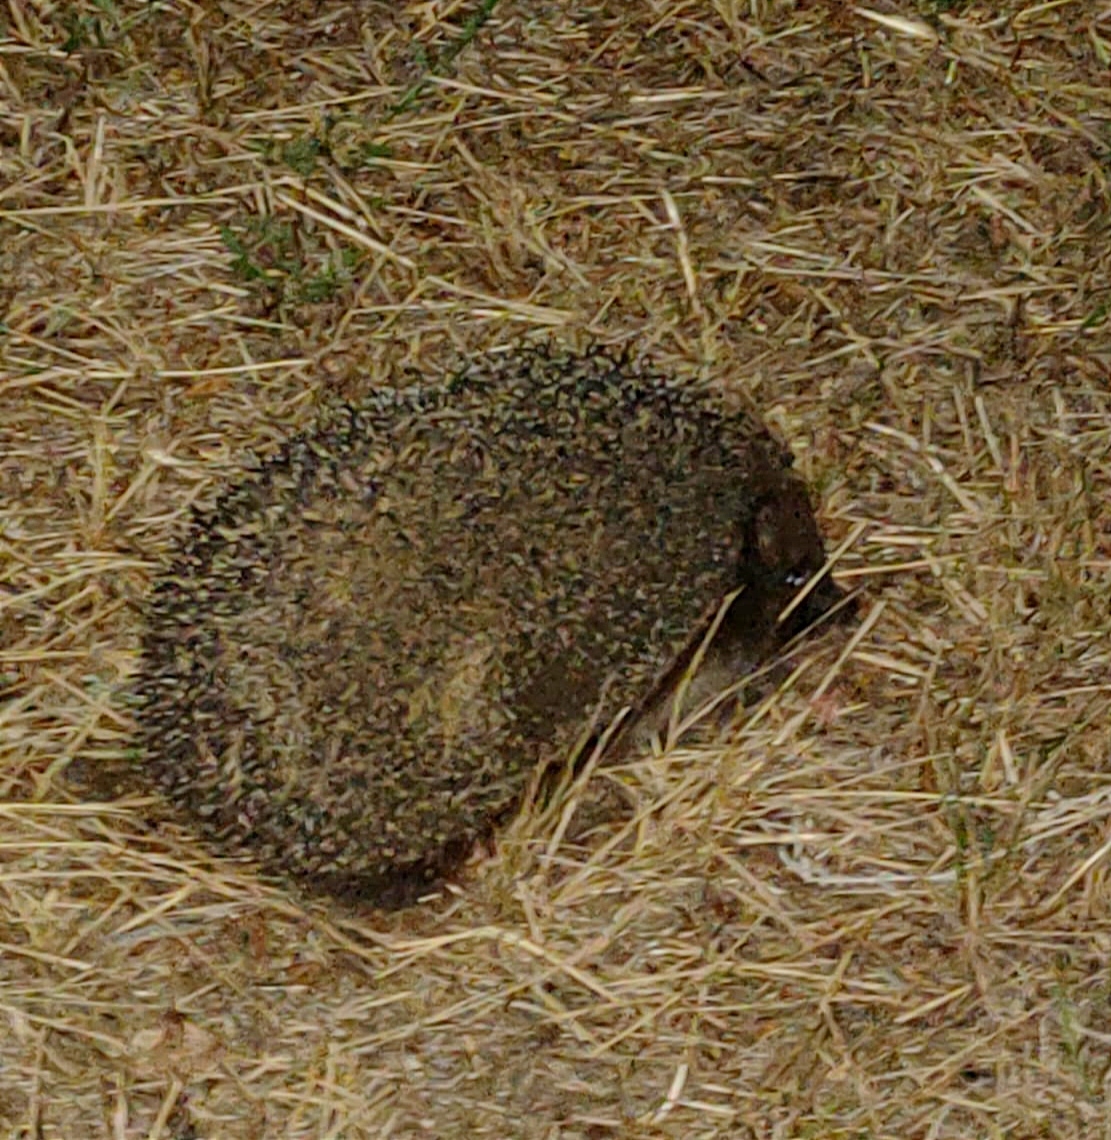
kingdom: Animalia
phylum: Chordata
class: Mammalia
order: Erinaceomorpha
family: Erinaceidae
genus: Erinaceus
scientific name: Erinaceus roumanicus
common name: Northern white-breasted hedgehog
